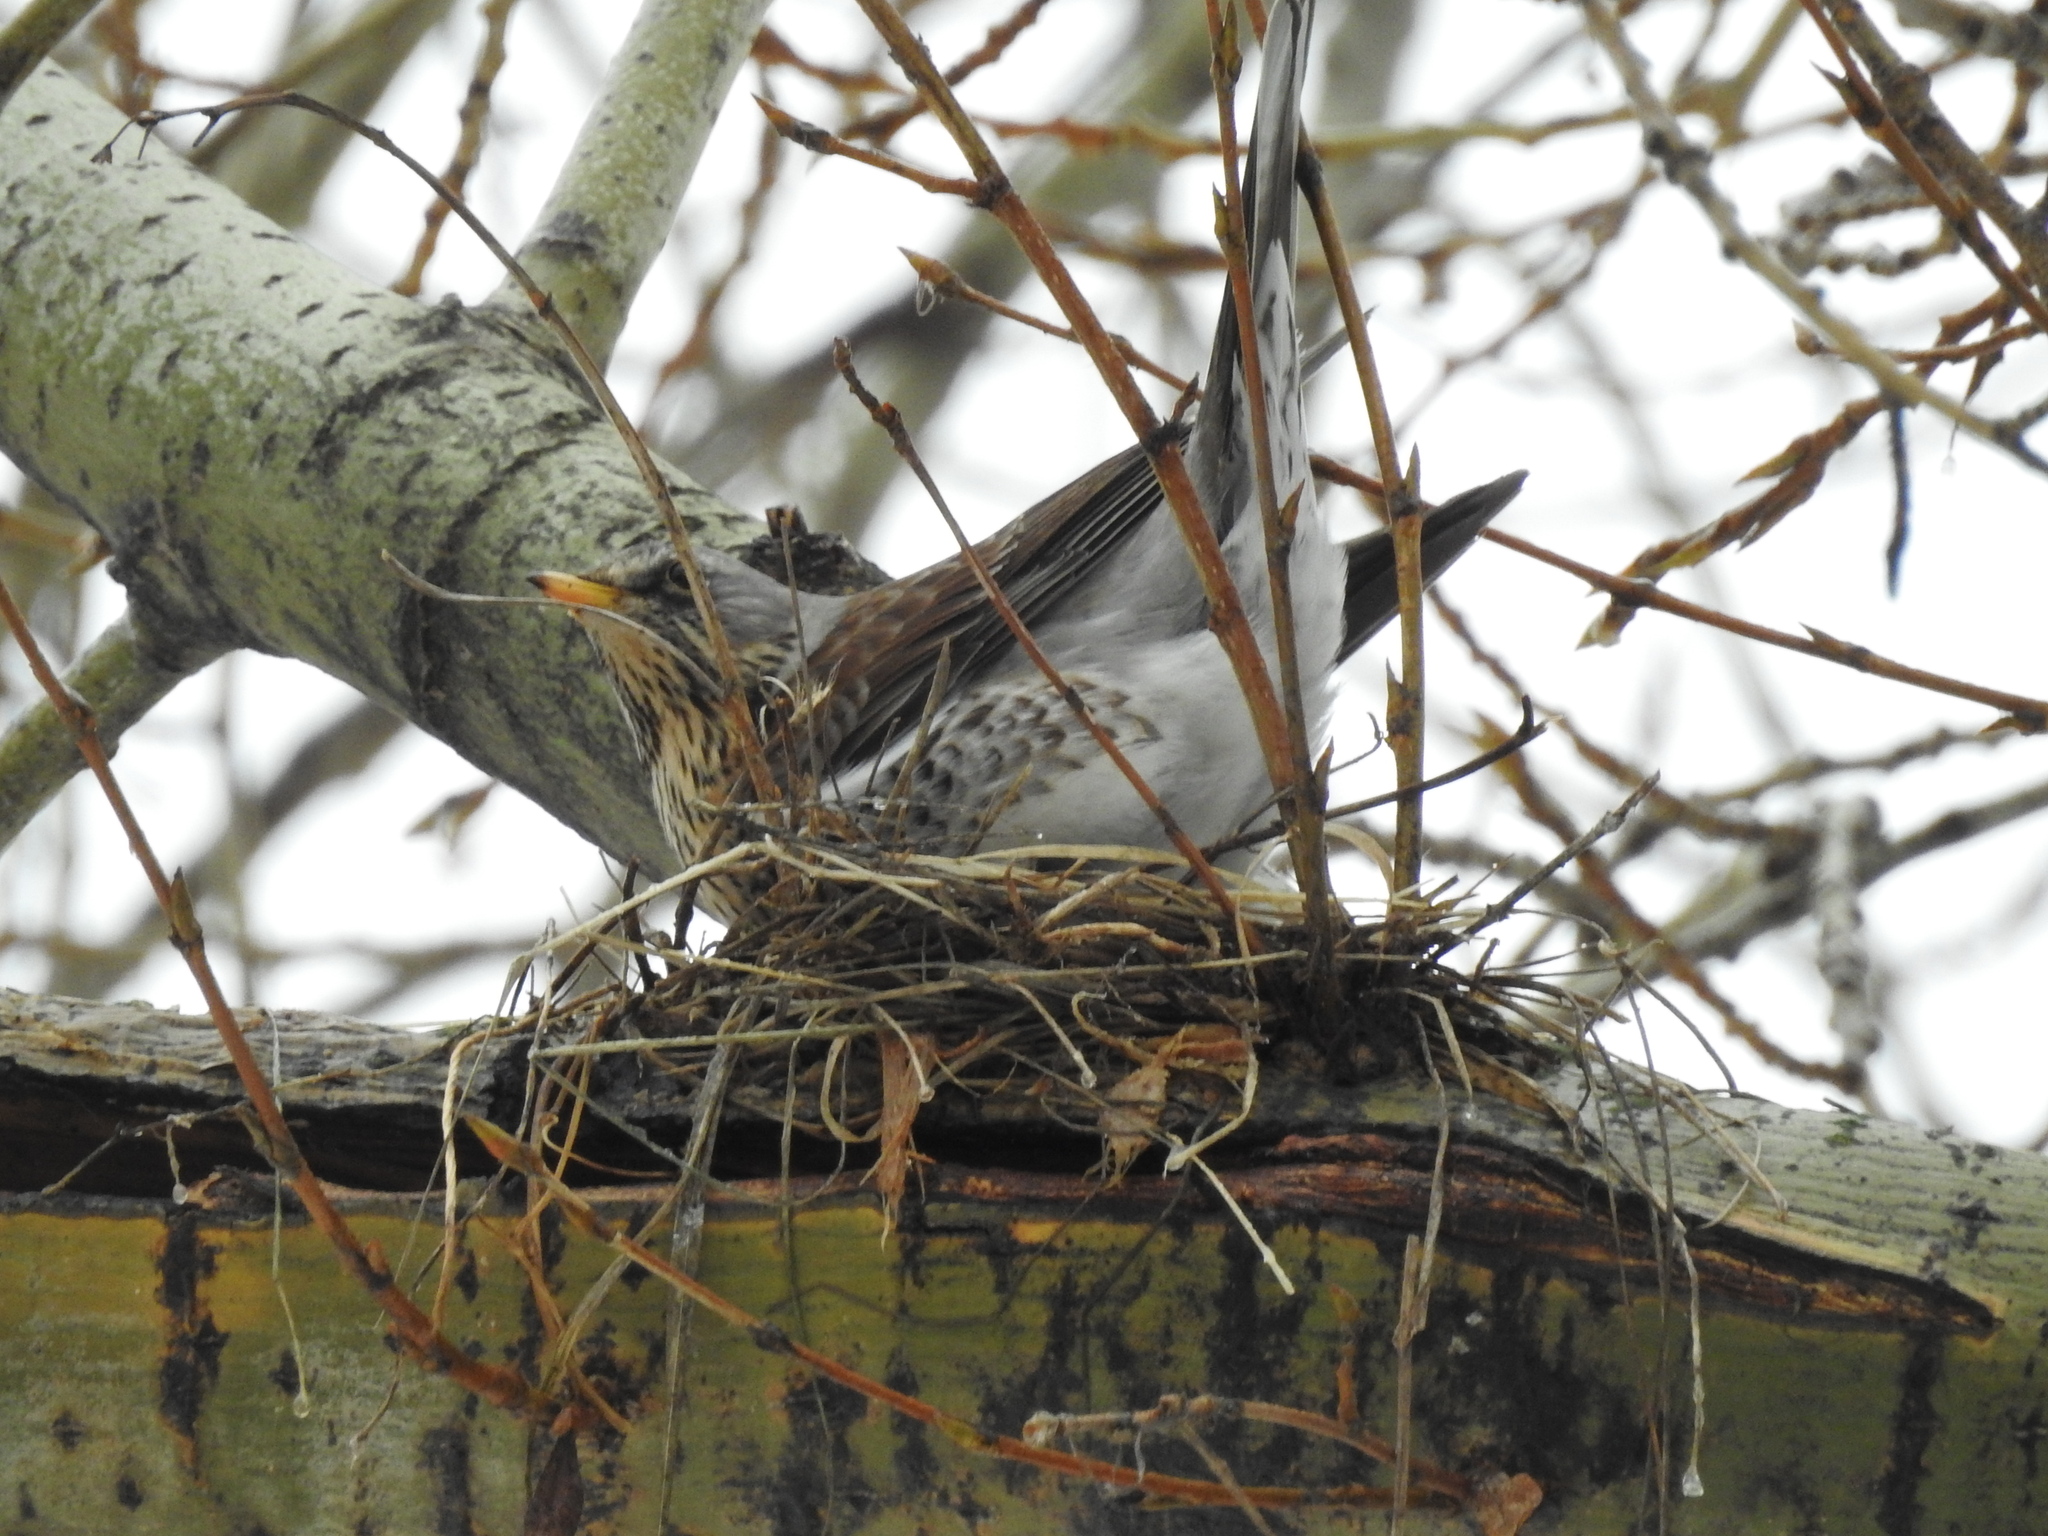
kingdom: Animalia
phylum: Chordata
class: Aves
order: Passeriformes
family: Turdidae
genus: Turdus
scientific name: Turdus pilaris
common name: Fieldfare
